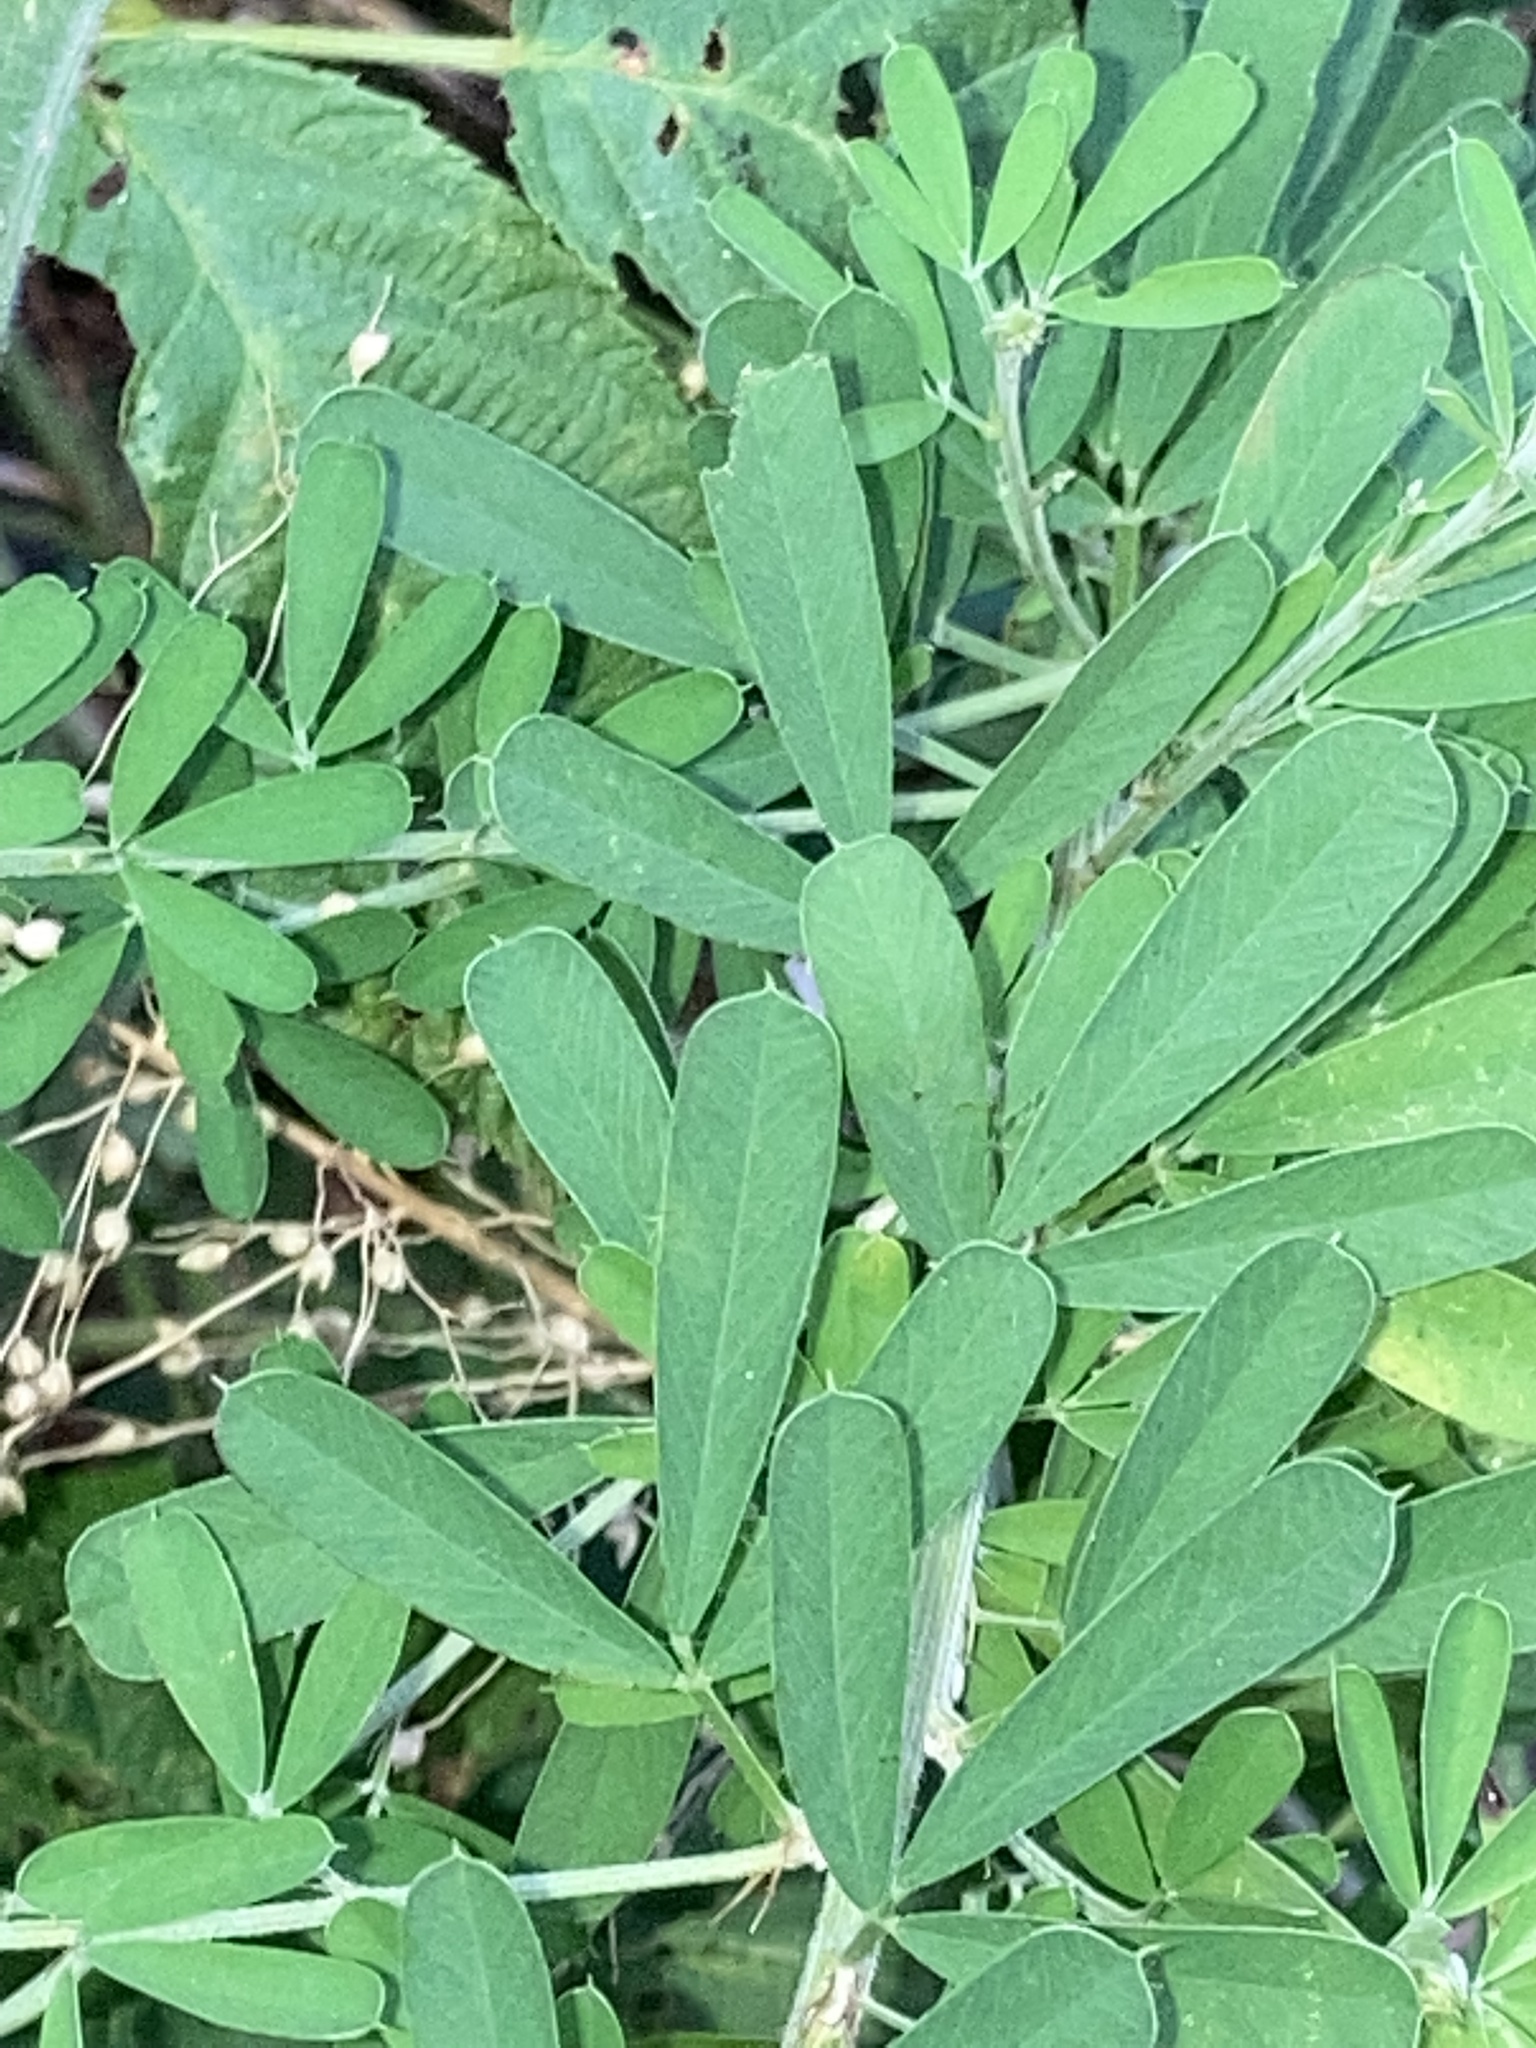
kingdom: Plantae
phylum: Tracheophyta
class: Magnoliopsida
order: Fabales
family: Fabaceae
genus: Lespedeza
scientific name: Lespedeza cuneata
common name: Chinese bush-clover
